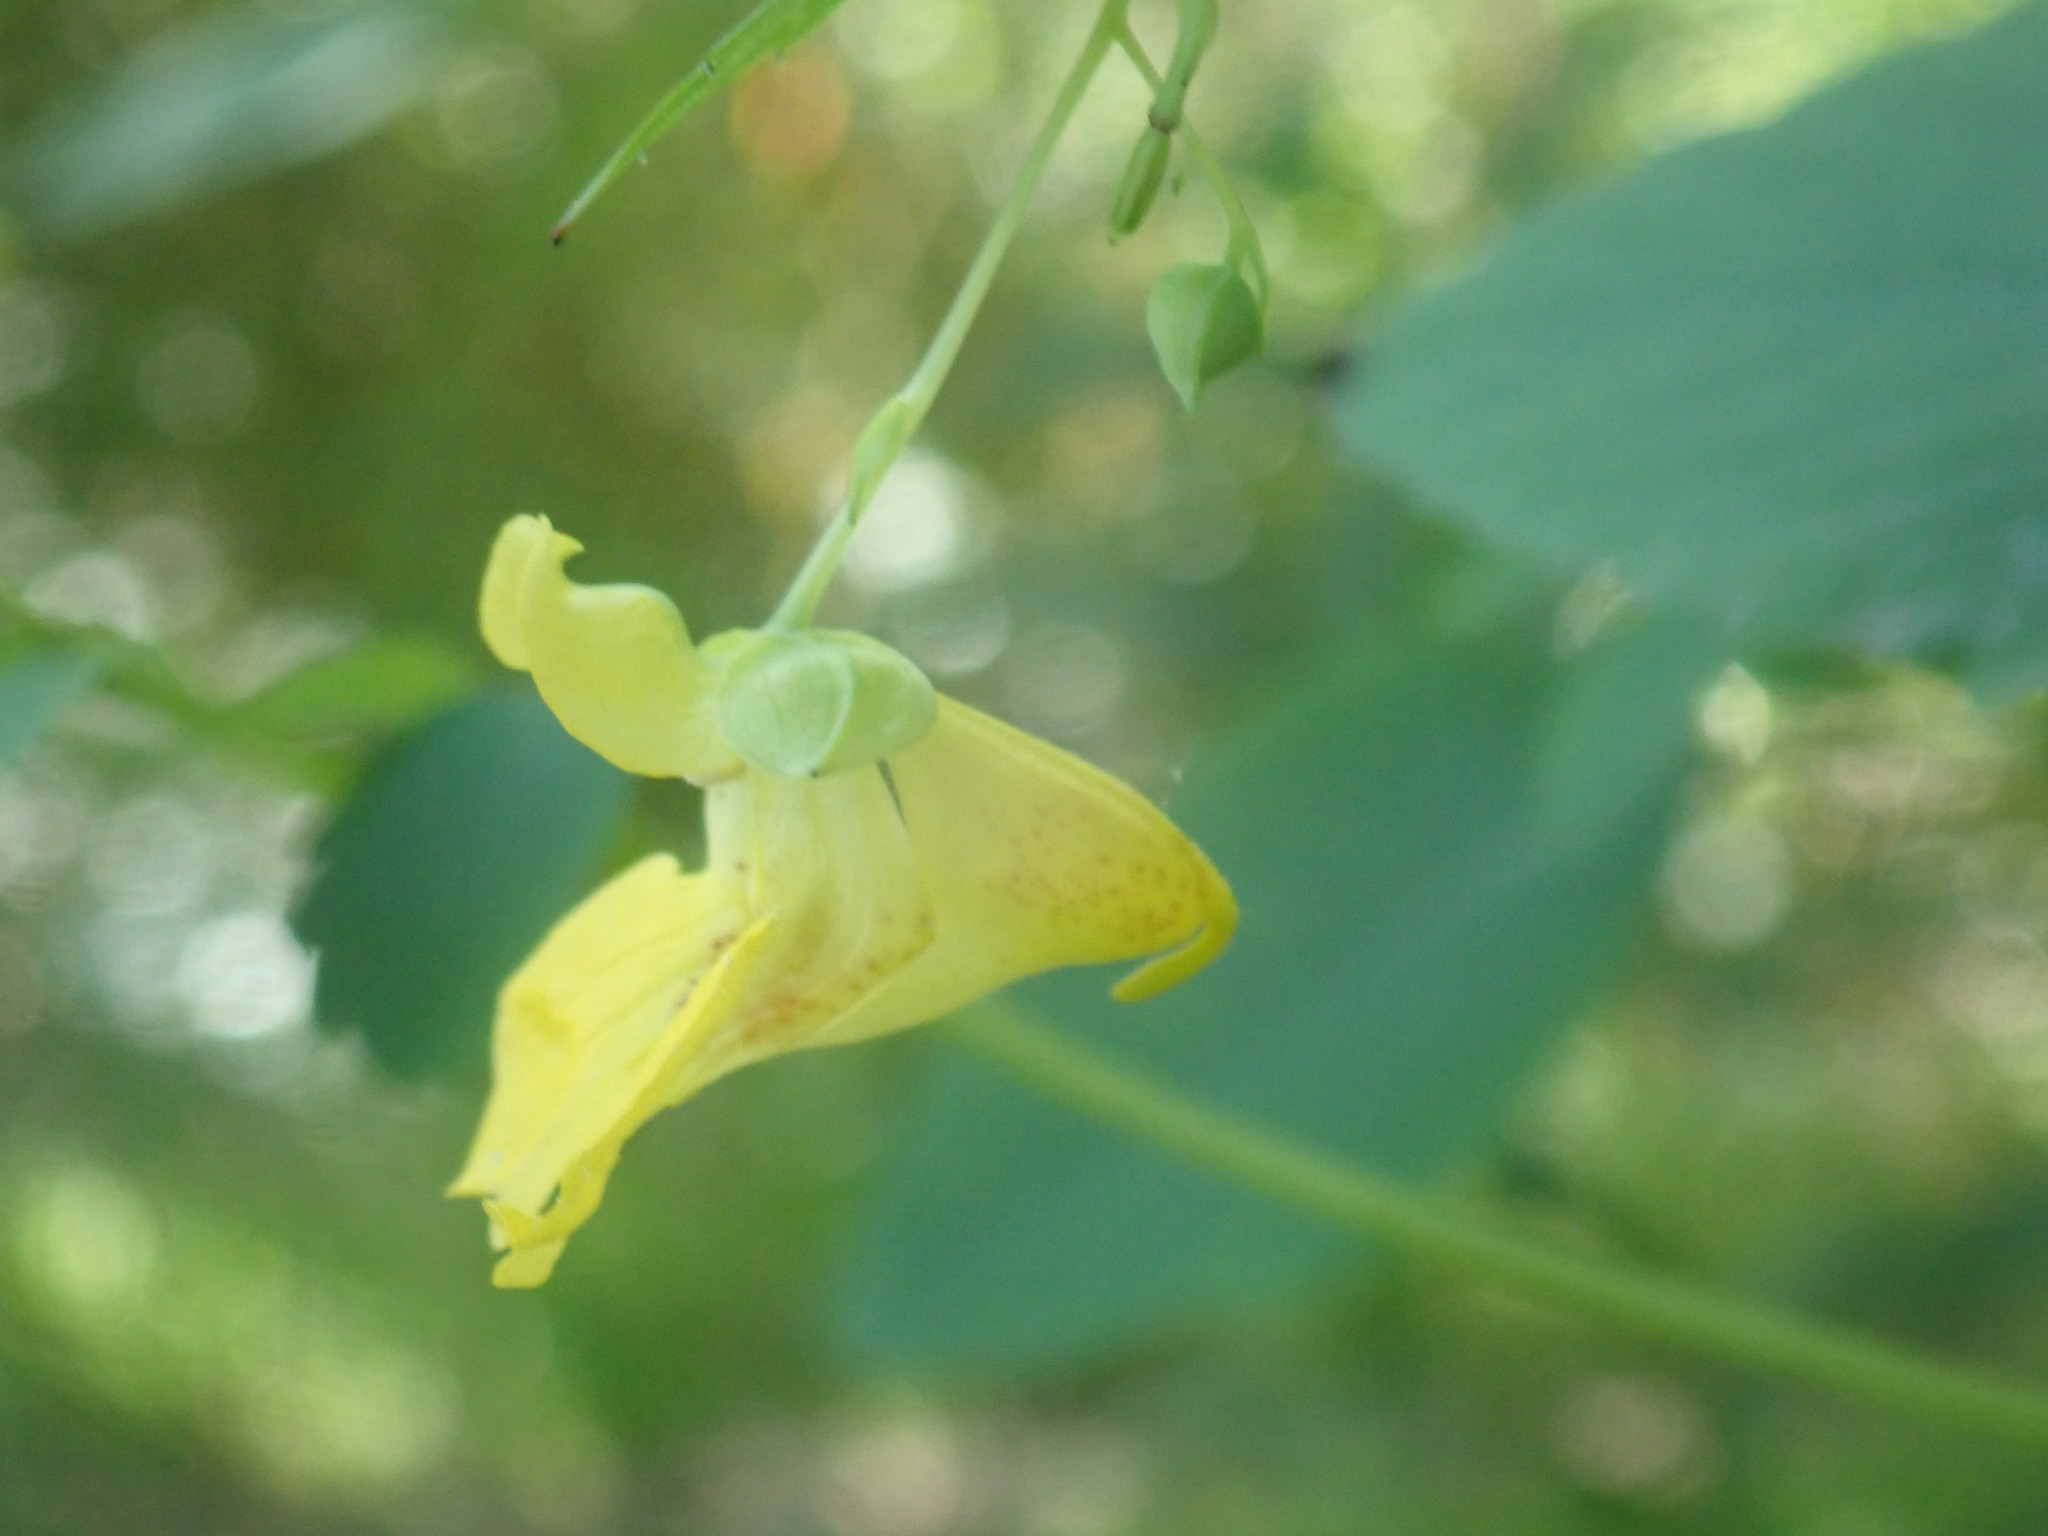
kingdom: Plantae
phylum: Tracheophyta
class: Magnoliopsida
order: Ericales
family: Balsaminaceae
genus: Impatiens
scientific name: Impatiens pallida
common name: Pale snapweed
